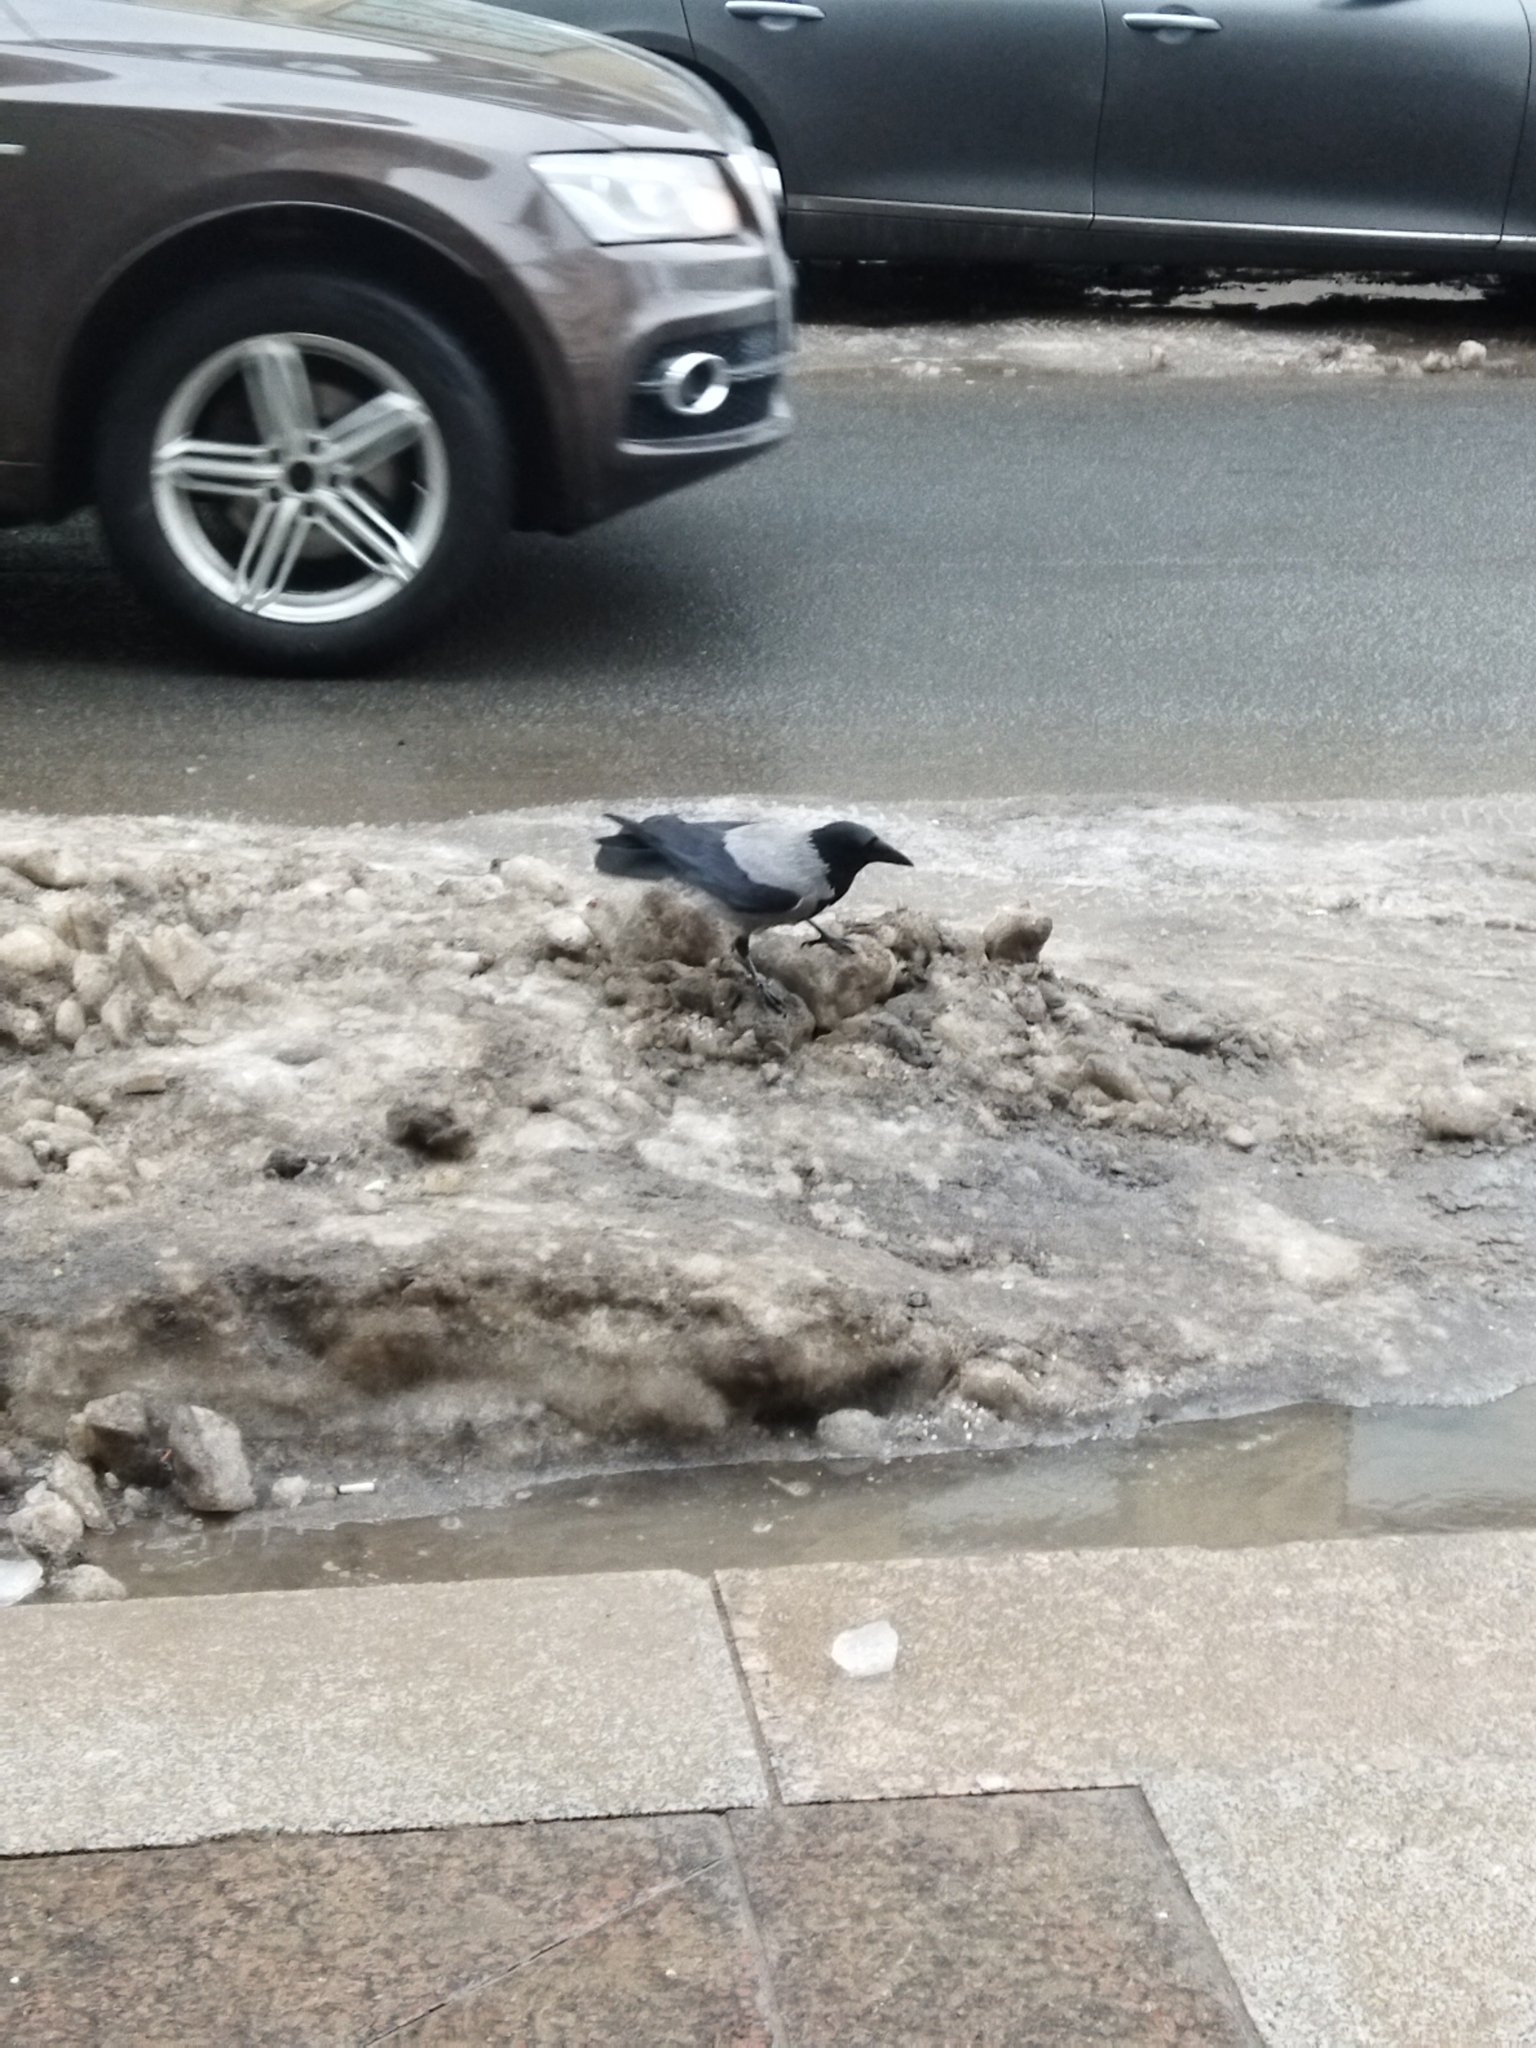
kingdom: Animalia
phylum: Chordata
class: Aves
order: Passeriformes
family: Corvidae
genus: Corvus
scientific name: Corvus cornix
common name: Hooded crow
